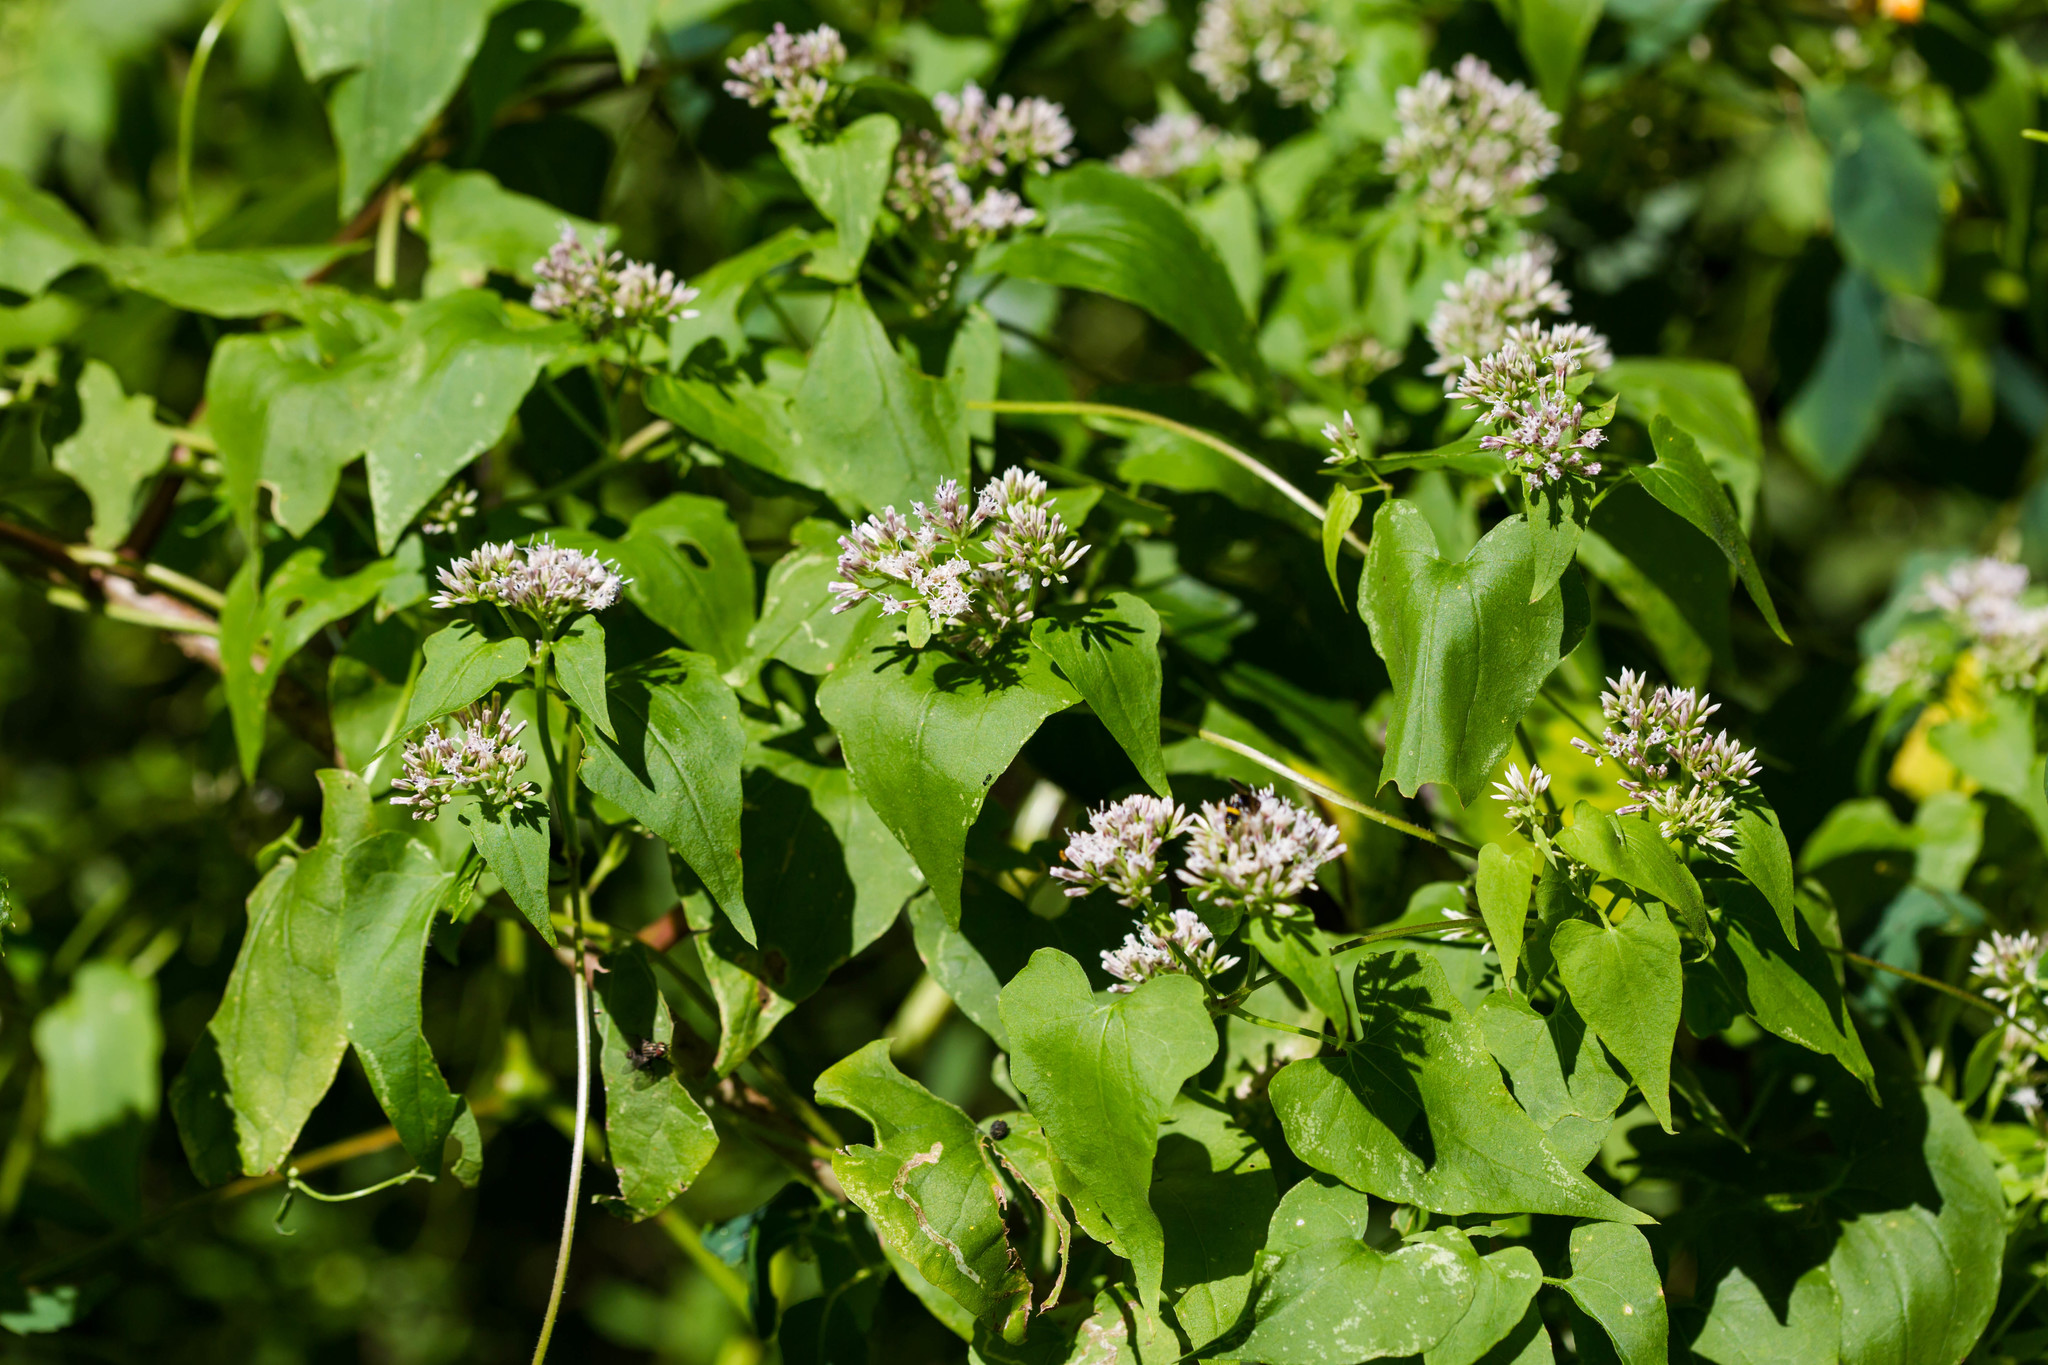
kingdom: Plantae
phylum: Tracheophyta
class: Magnoliopsida
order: Asterales
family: Asteraceae
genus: Mikania
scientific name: Mikania scandens
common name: Climbing hempvine
